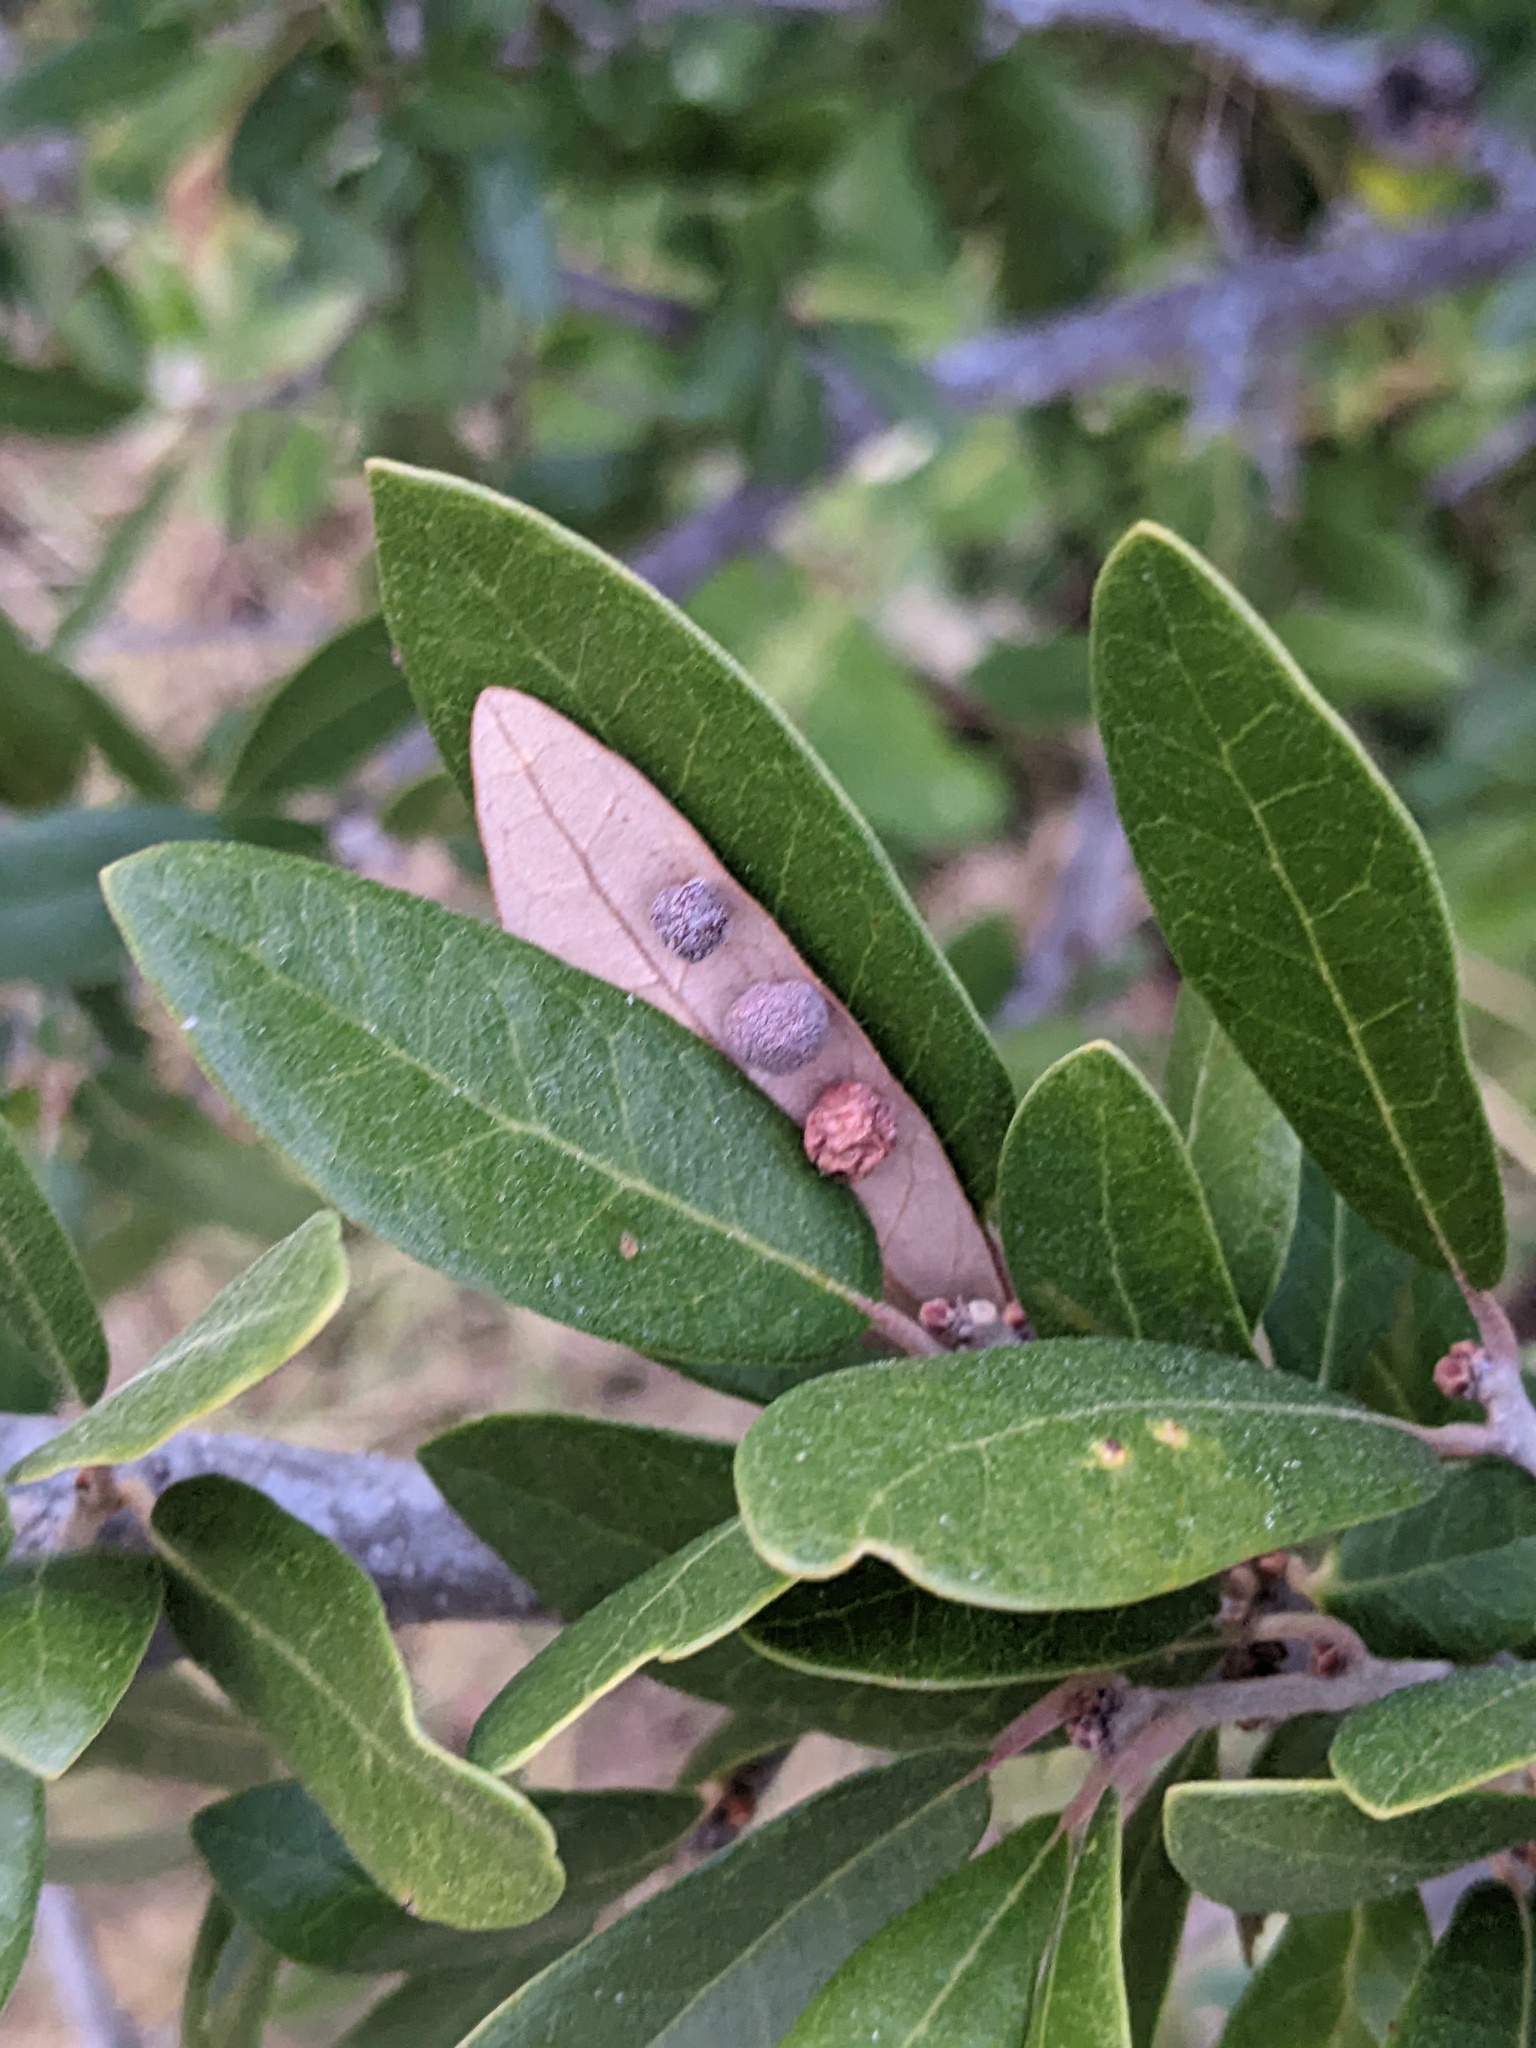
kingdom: Animalia
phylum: Arthropoda
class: Insecta
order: Hymenoptera
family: Cynipidae
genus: Belonocnema
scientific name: Belonocnema kinseyi
